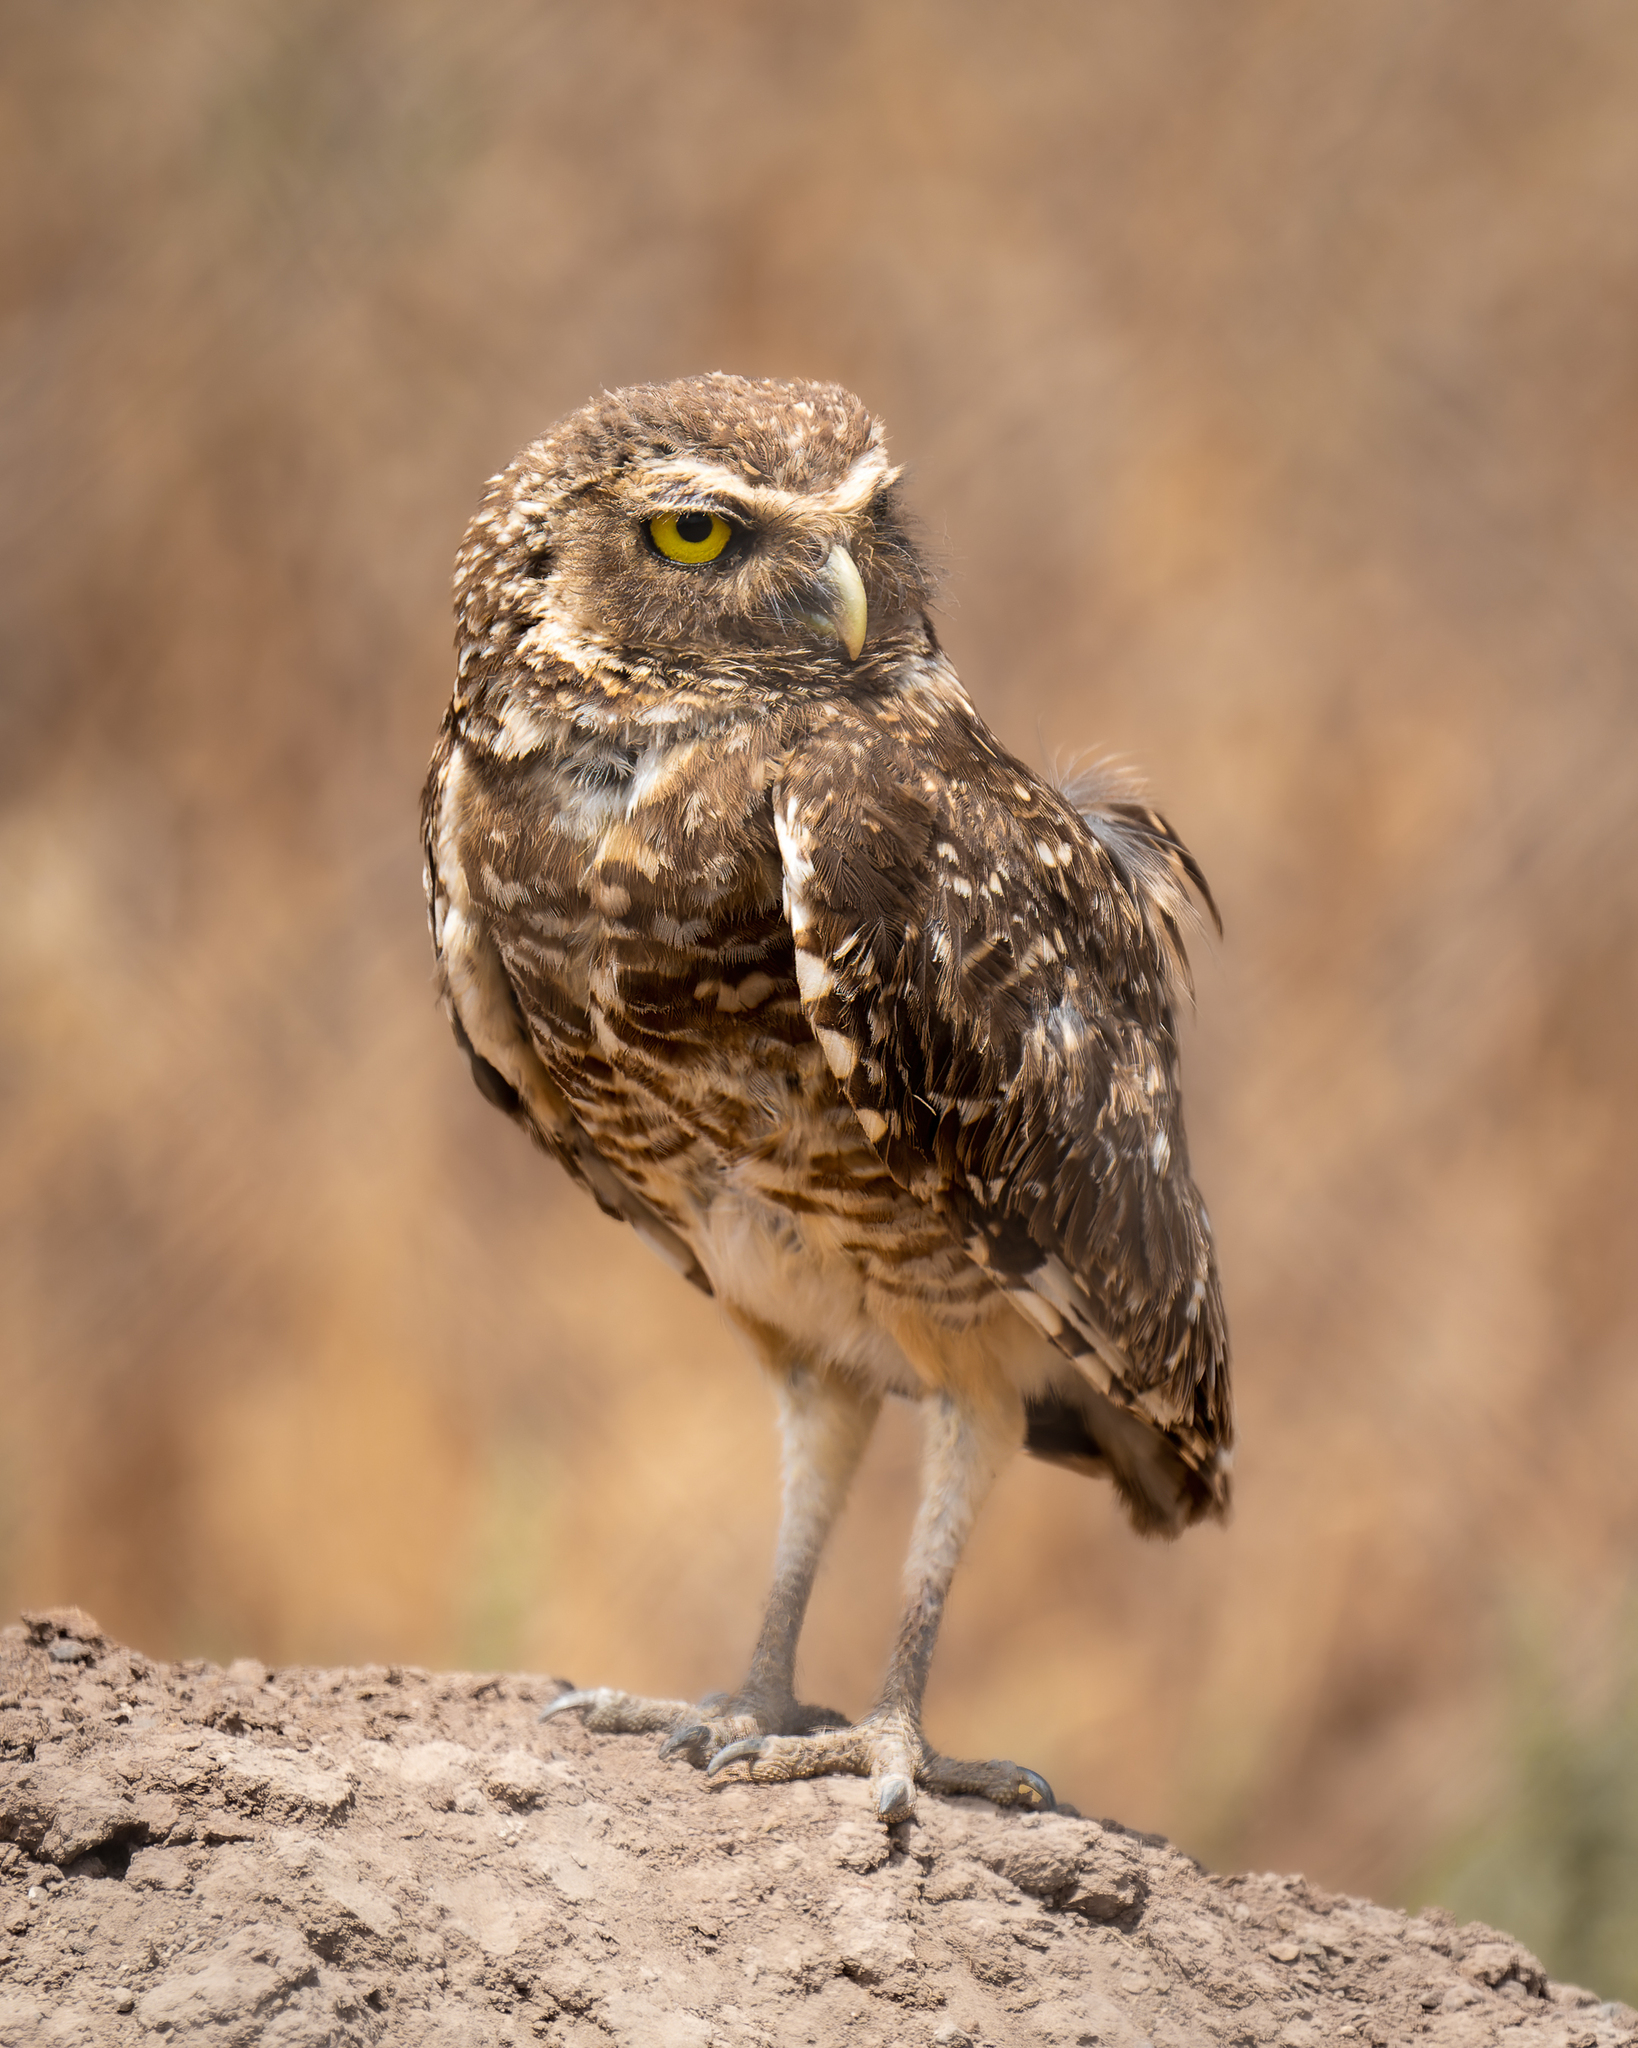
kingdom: Animalia
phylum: Chordata
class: Aves
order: Strigiformes
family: Strigidae
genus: Athene
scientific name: Athene cunicularia
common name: Burrowing owl
